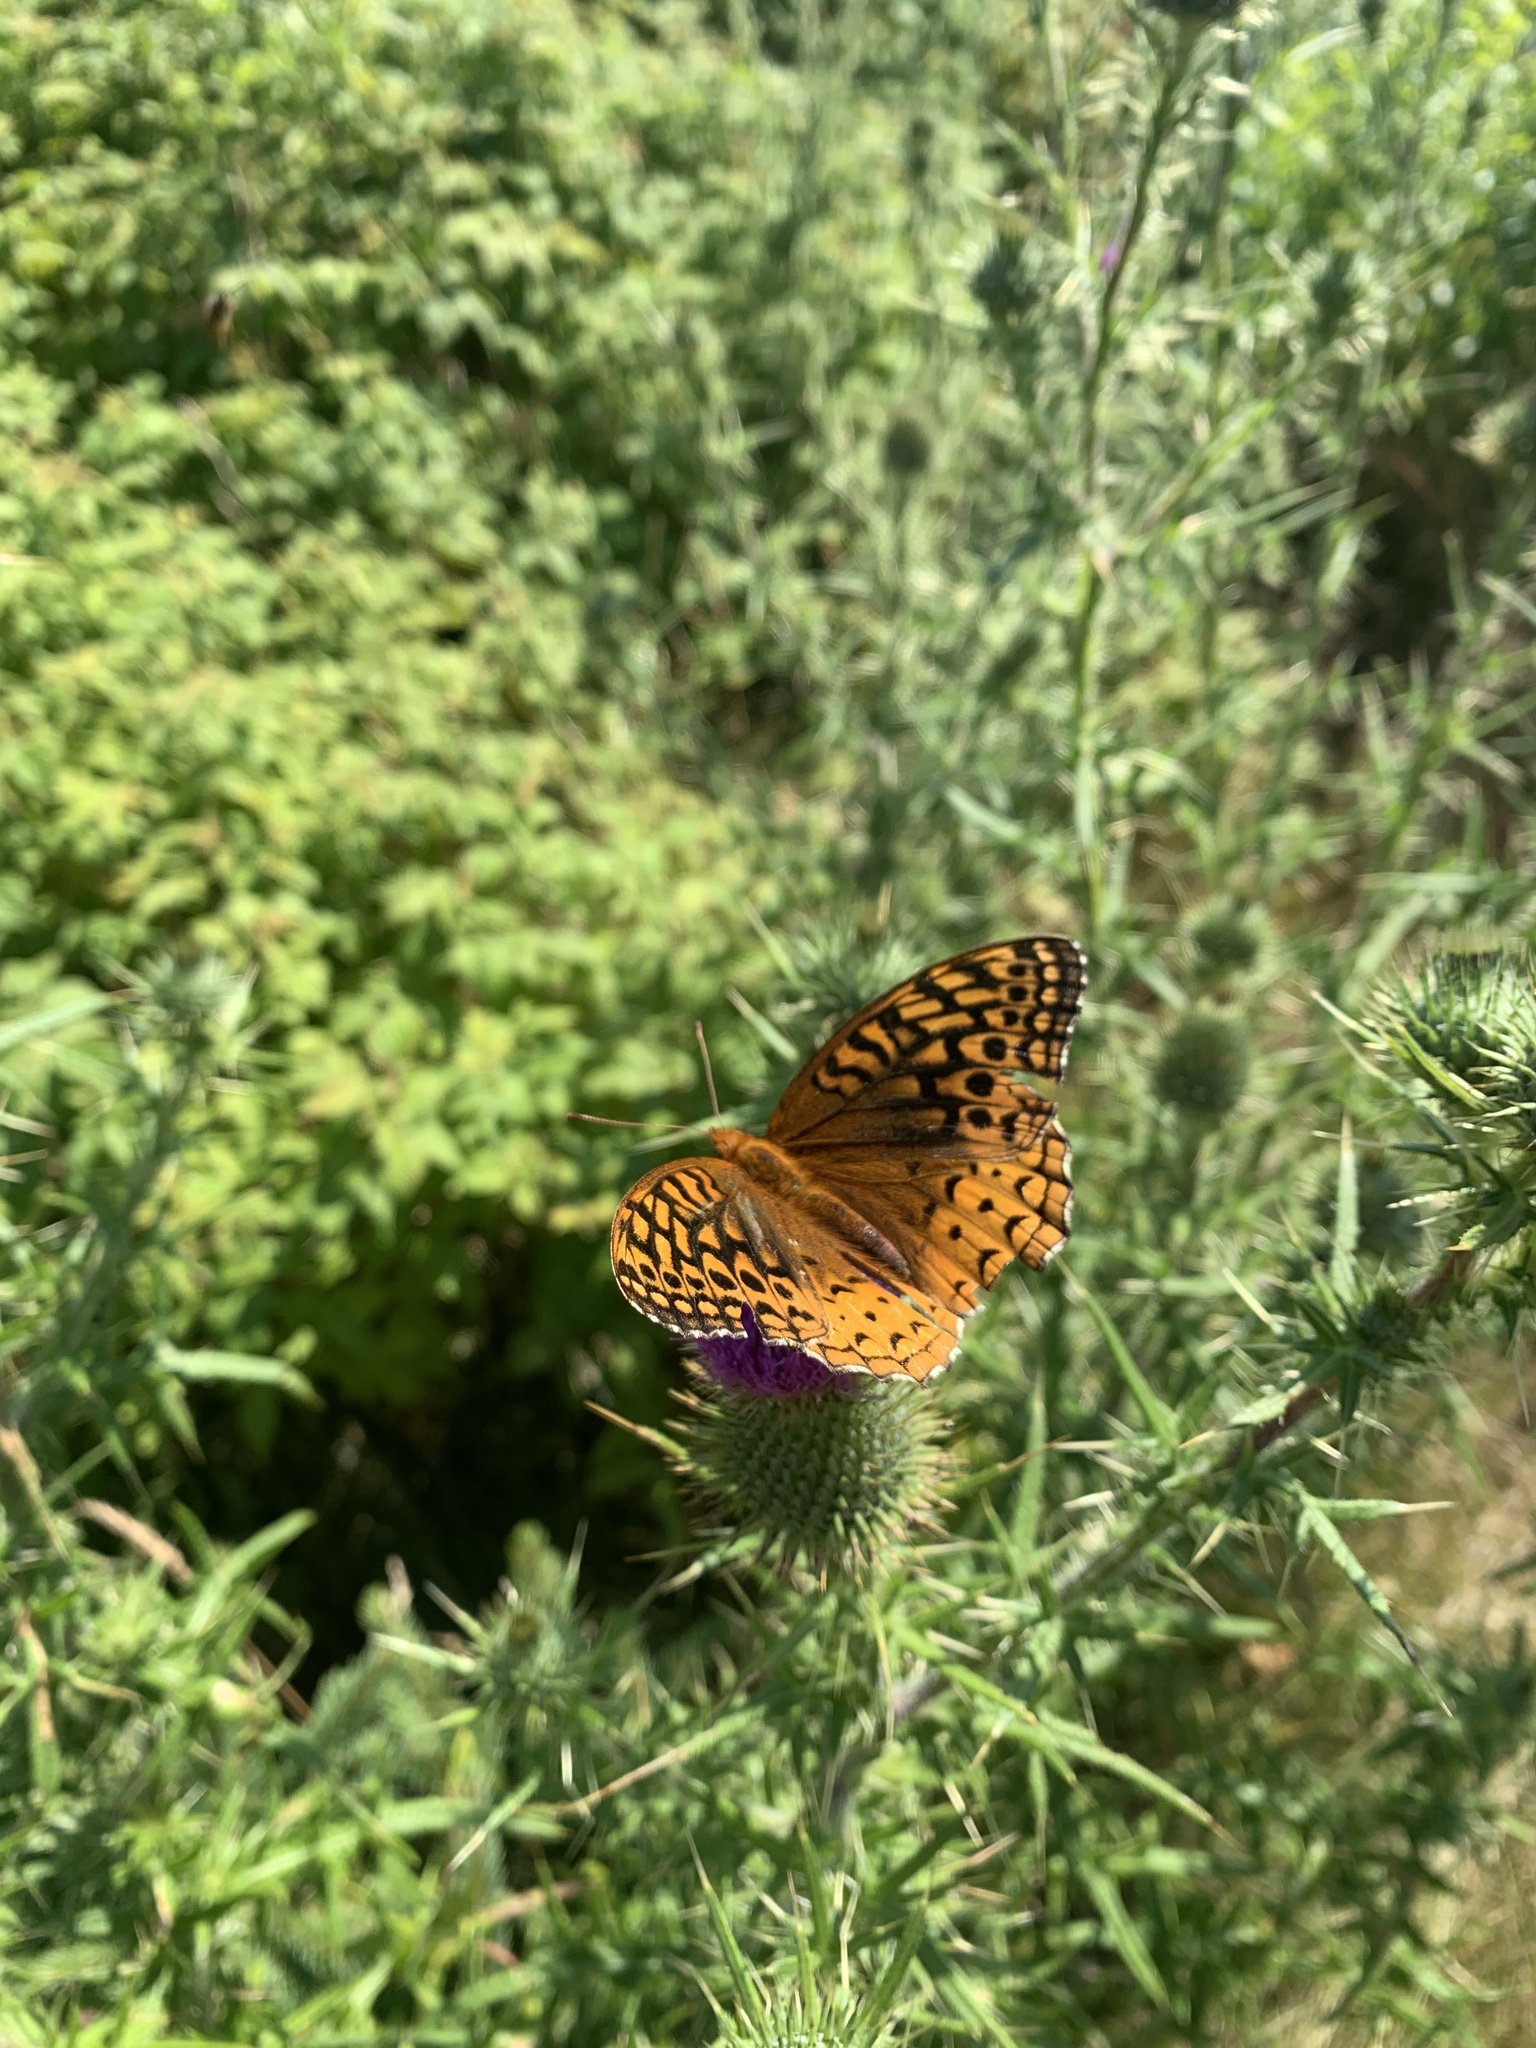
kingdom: Animalia
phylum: Arthropoda
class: Insecta
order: Lepidoptera
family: Nymphalidae
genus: Speyeria
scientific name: Speyeria cybele
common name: Great spangled fritillary
